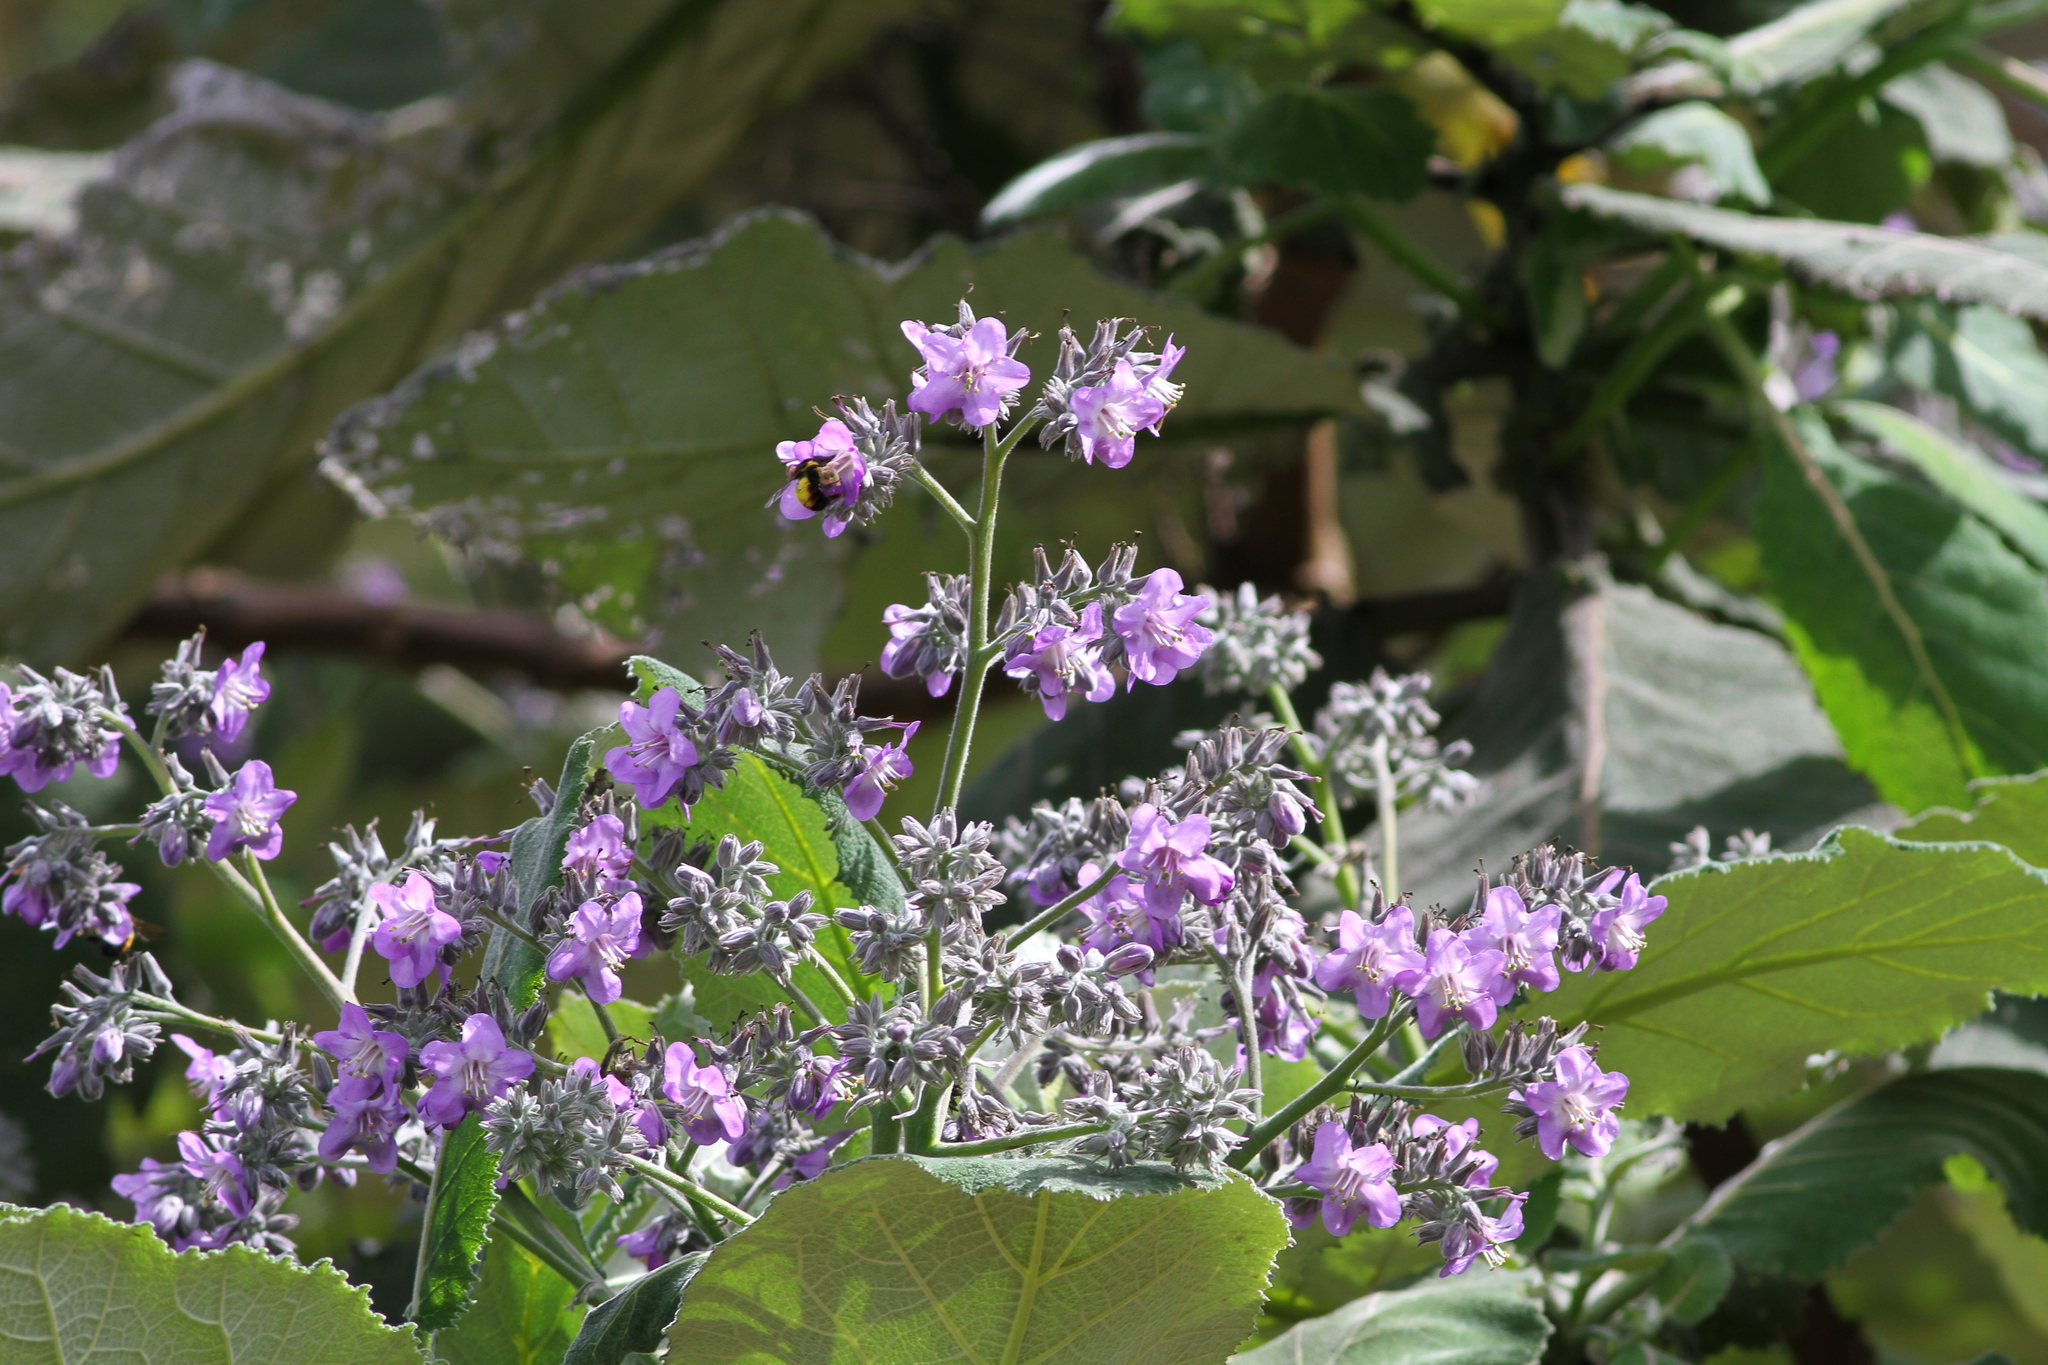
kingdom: Plantae
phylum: Tracheophyta
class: Magnoliopsida
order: Boraginales
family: Namaceae
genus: Wigandia
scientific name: Wigandia urens
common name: Caracus wigandia
